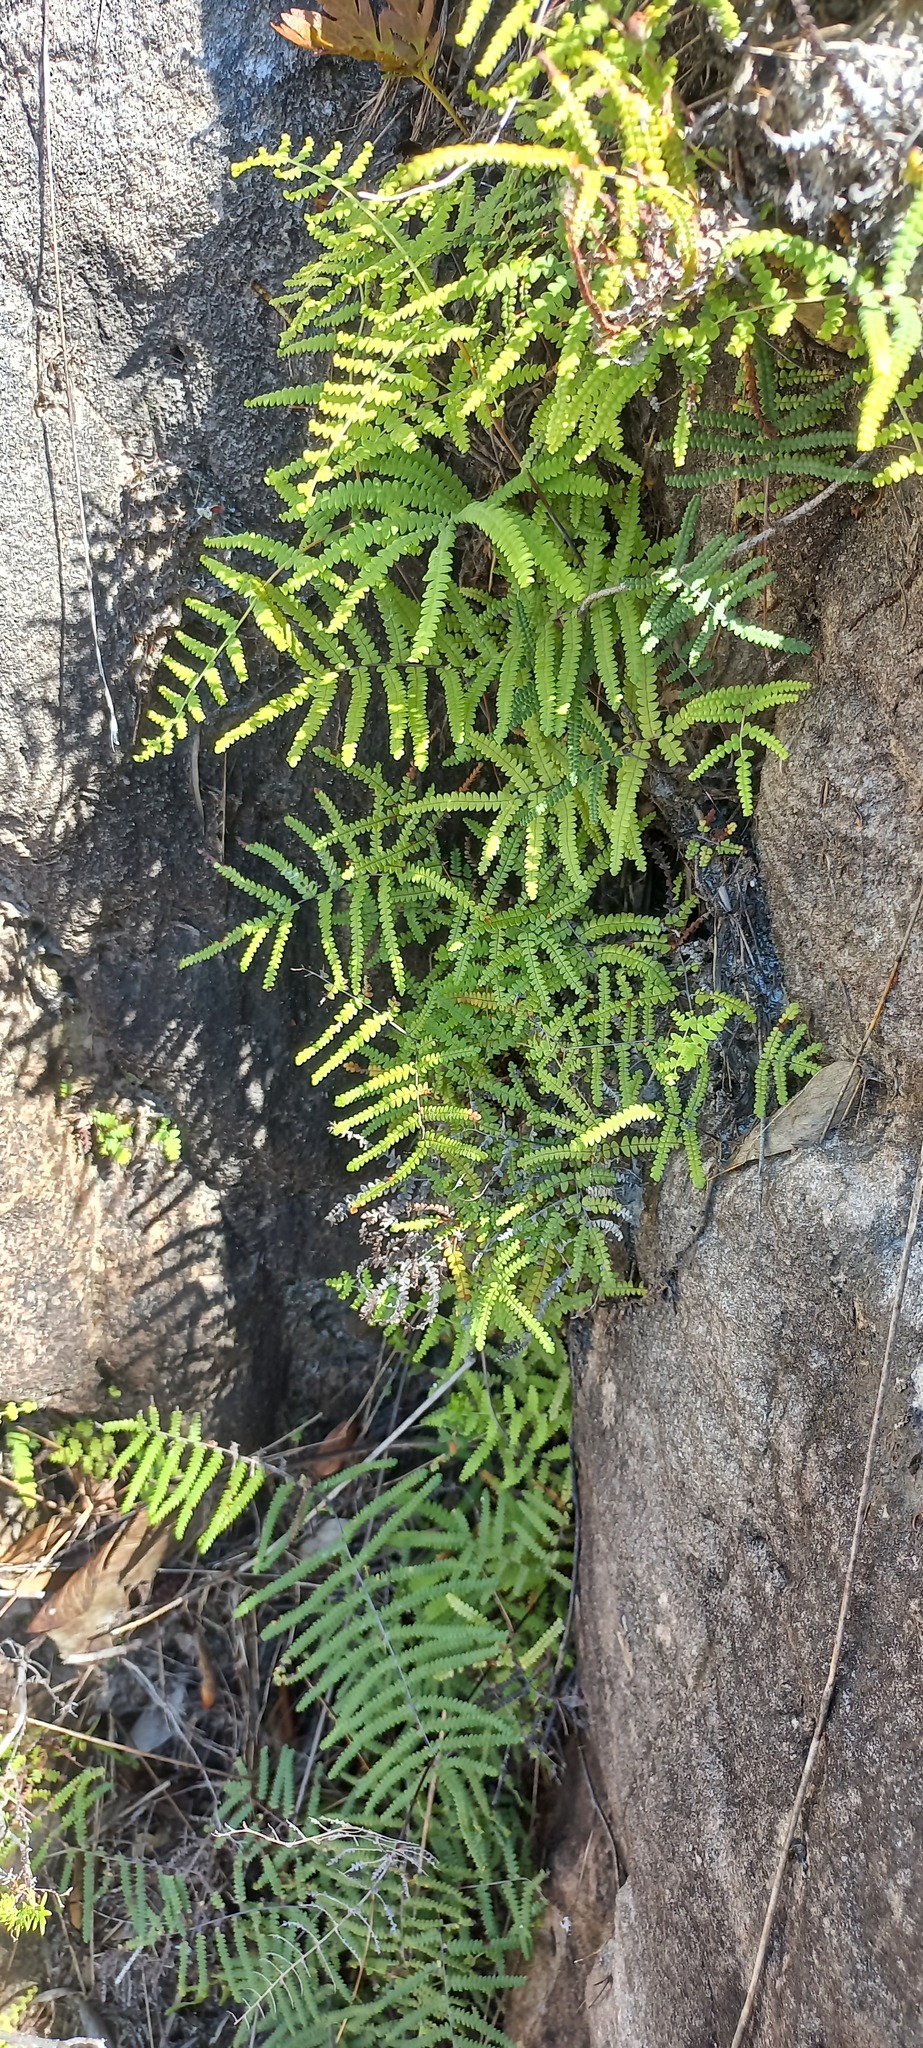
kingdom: Plantae
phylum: Tracheophyta
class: Polypodiopsida
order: Gleicheniales
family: Gleicheniaceae
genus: Gleichenia
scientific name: Gleichenia polypodioides
